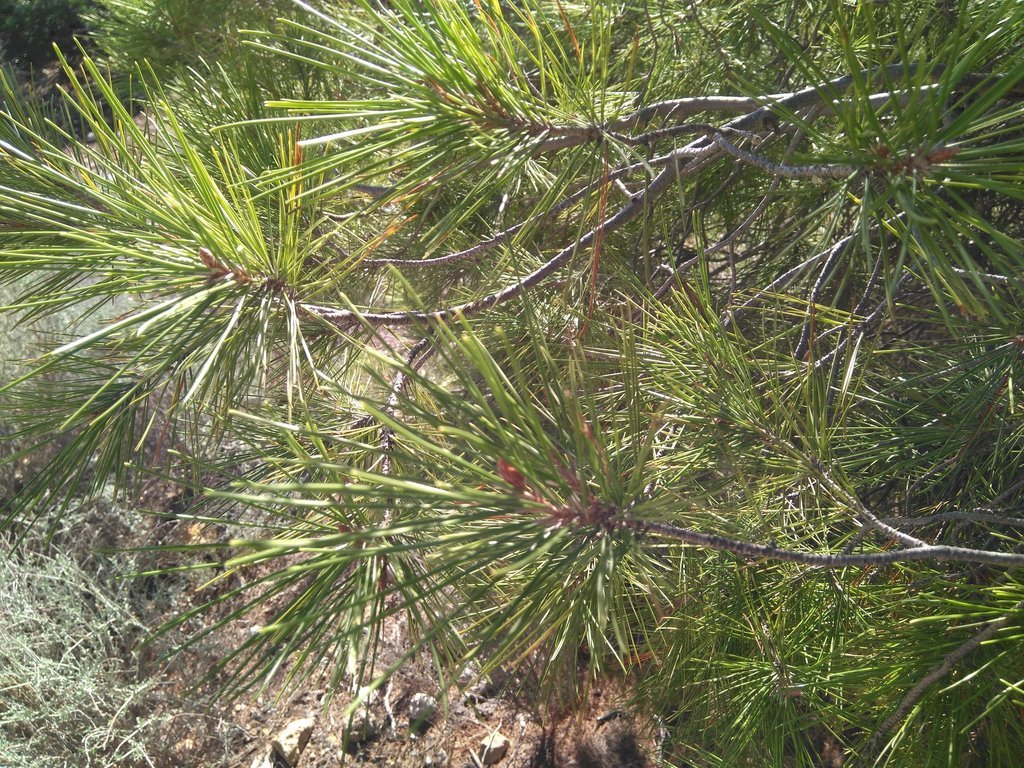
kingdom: Plantae
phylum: Tracheophyta
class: Pinopsida
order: Pinales
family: Pinaceae
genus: Pinus
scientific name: Pinus halepensis
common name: Aleppo pine
